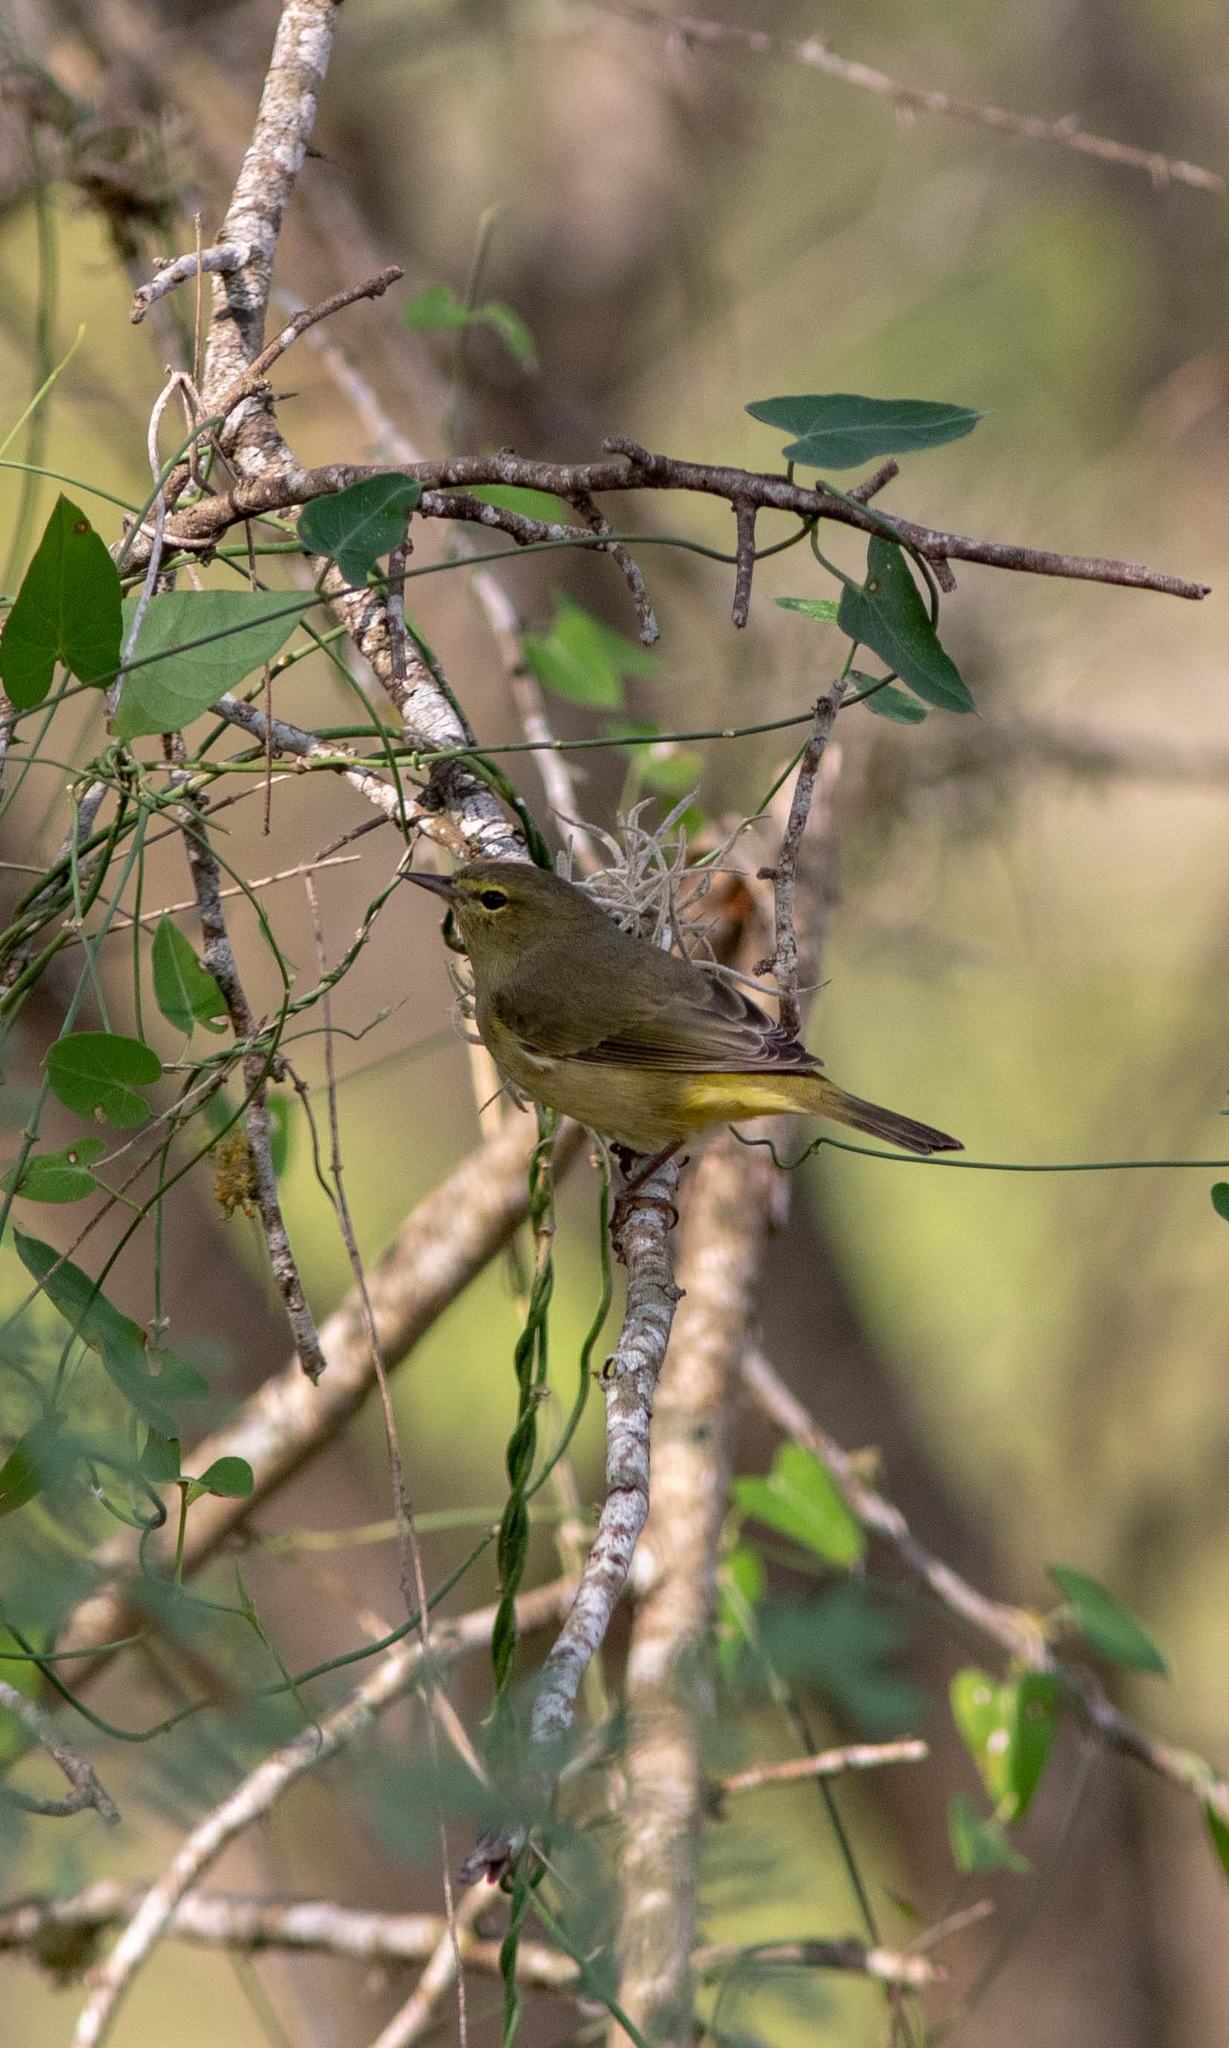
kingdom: Animalia
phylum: Chordata
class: Aves
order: Passeriformes
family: Parulidae
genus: Leiothlypis
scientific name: Leiothlypis celata
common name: Orange-crowned warbler
